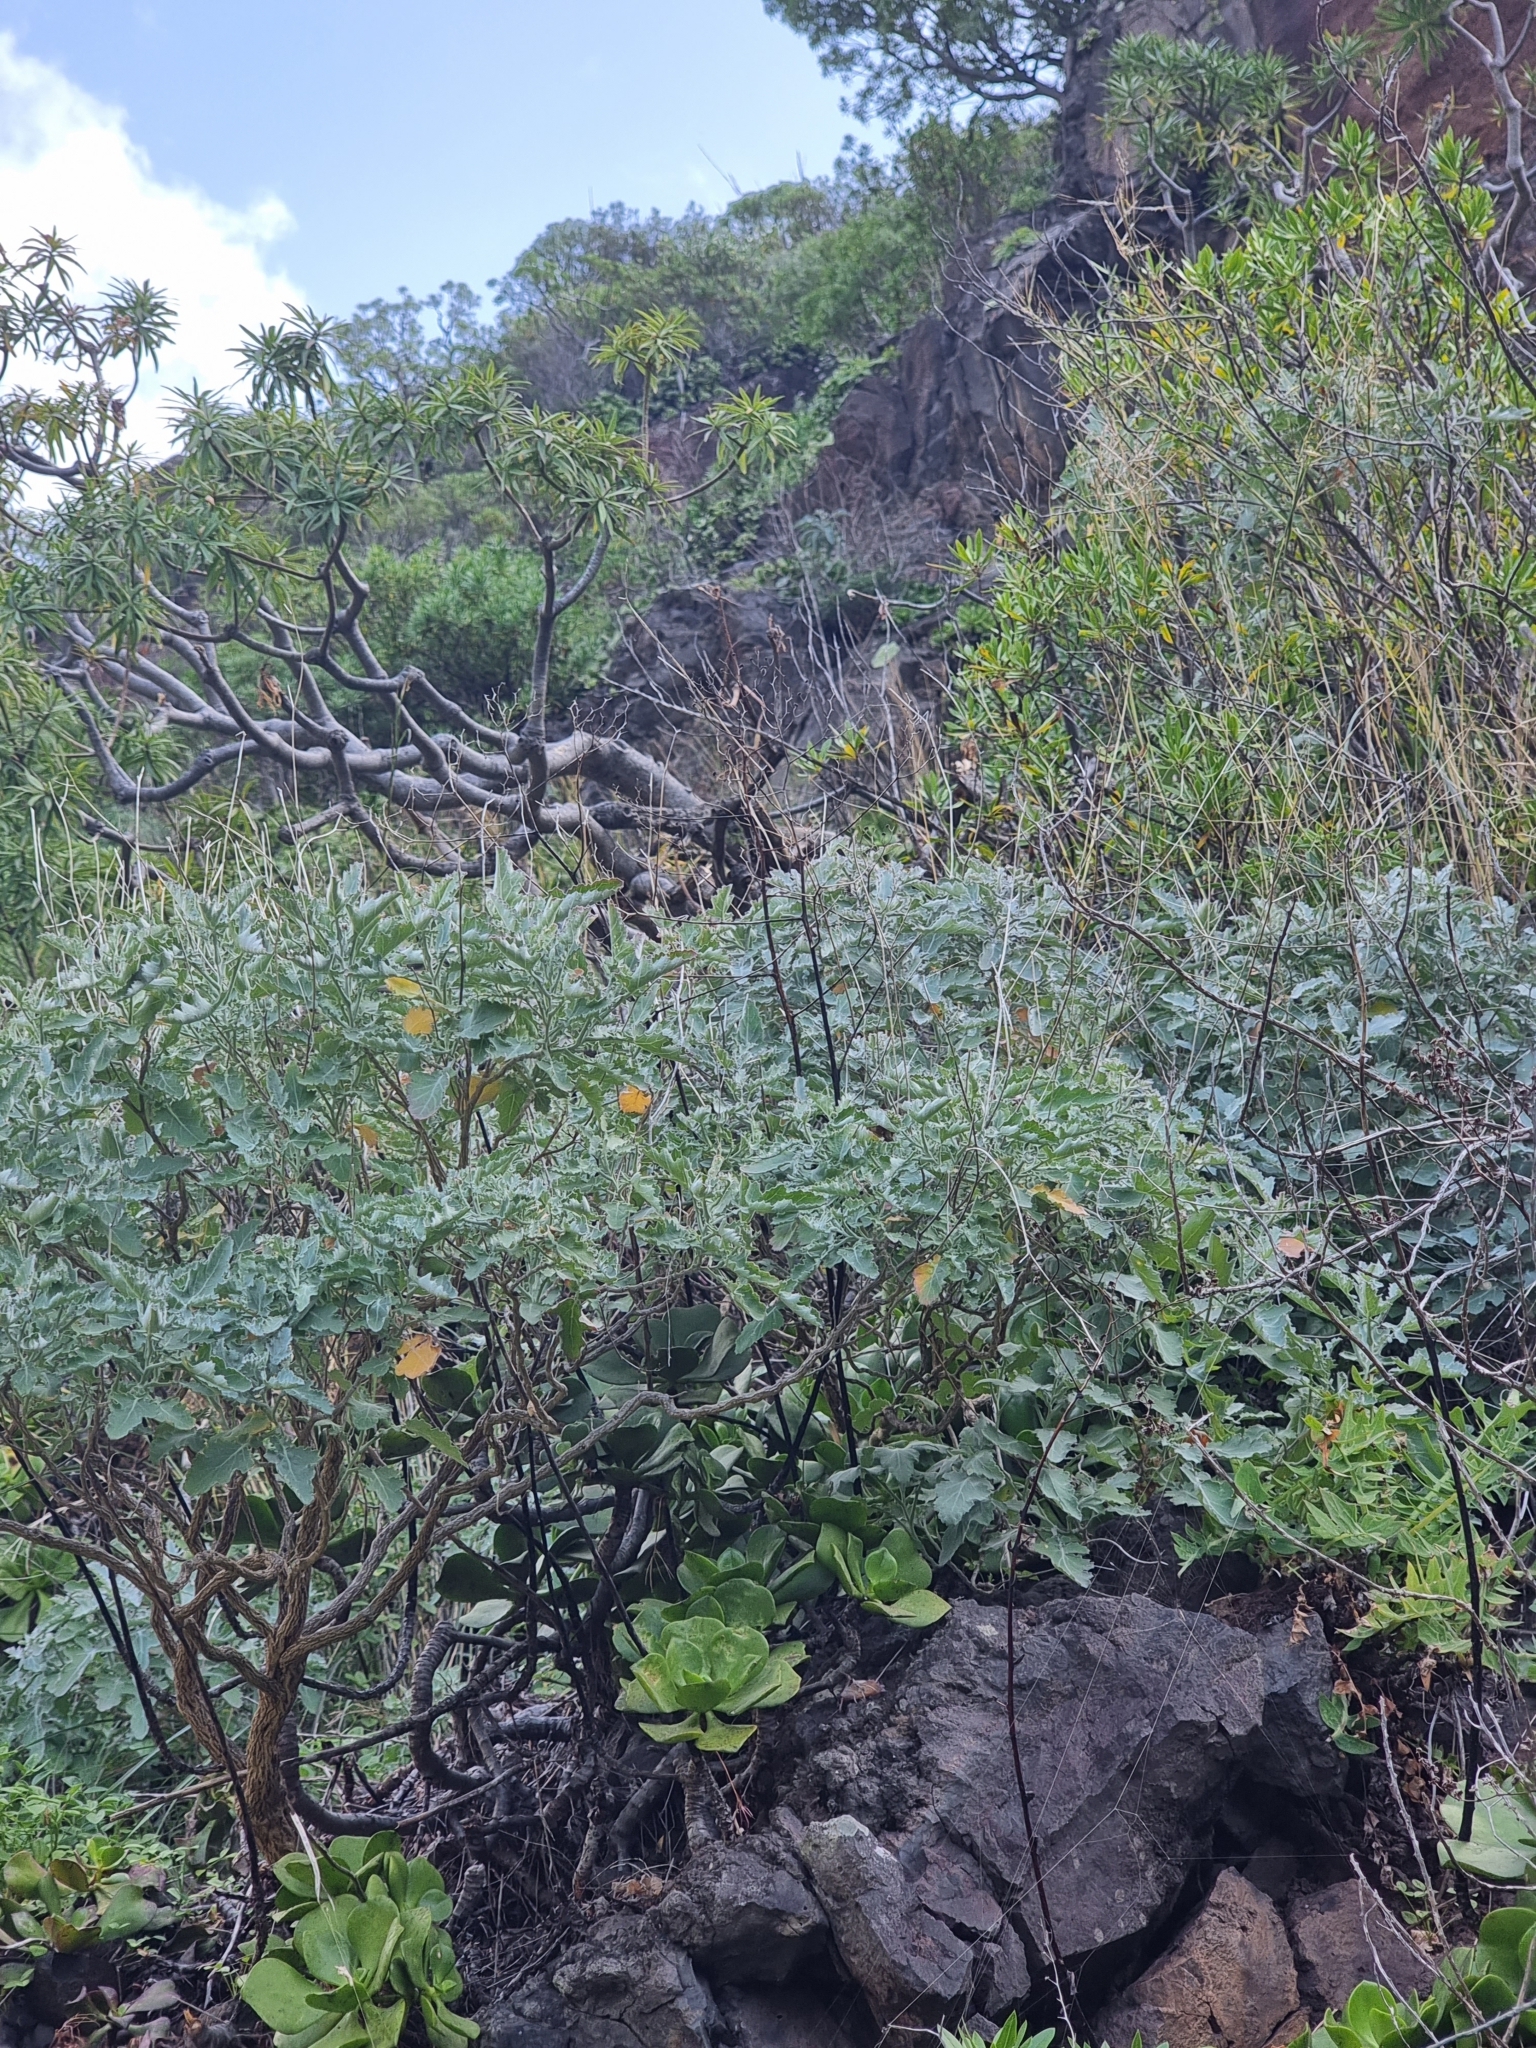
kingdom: Plantae
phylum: Tracheophyta
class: Magnoliopsida
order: Brassicales
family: Brassicaceae
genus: Crambe
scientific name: Crambe fruticosa
